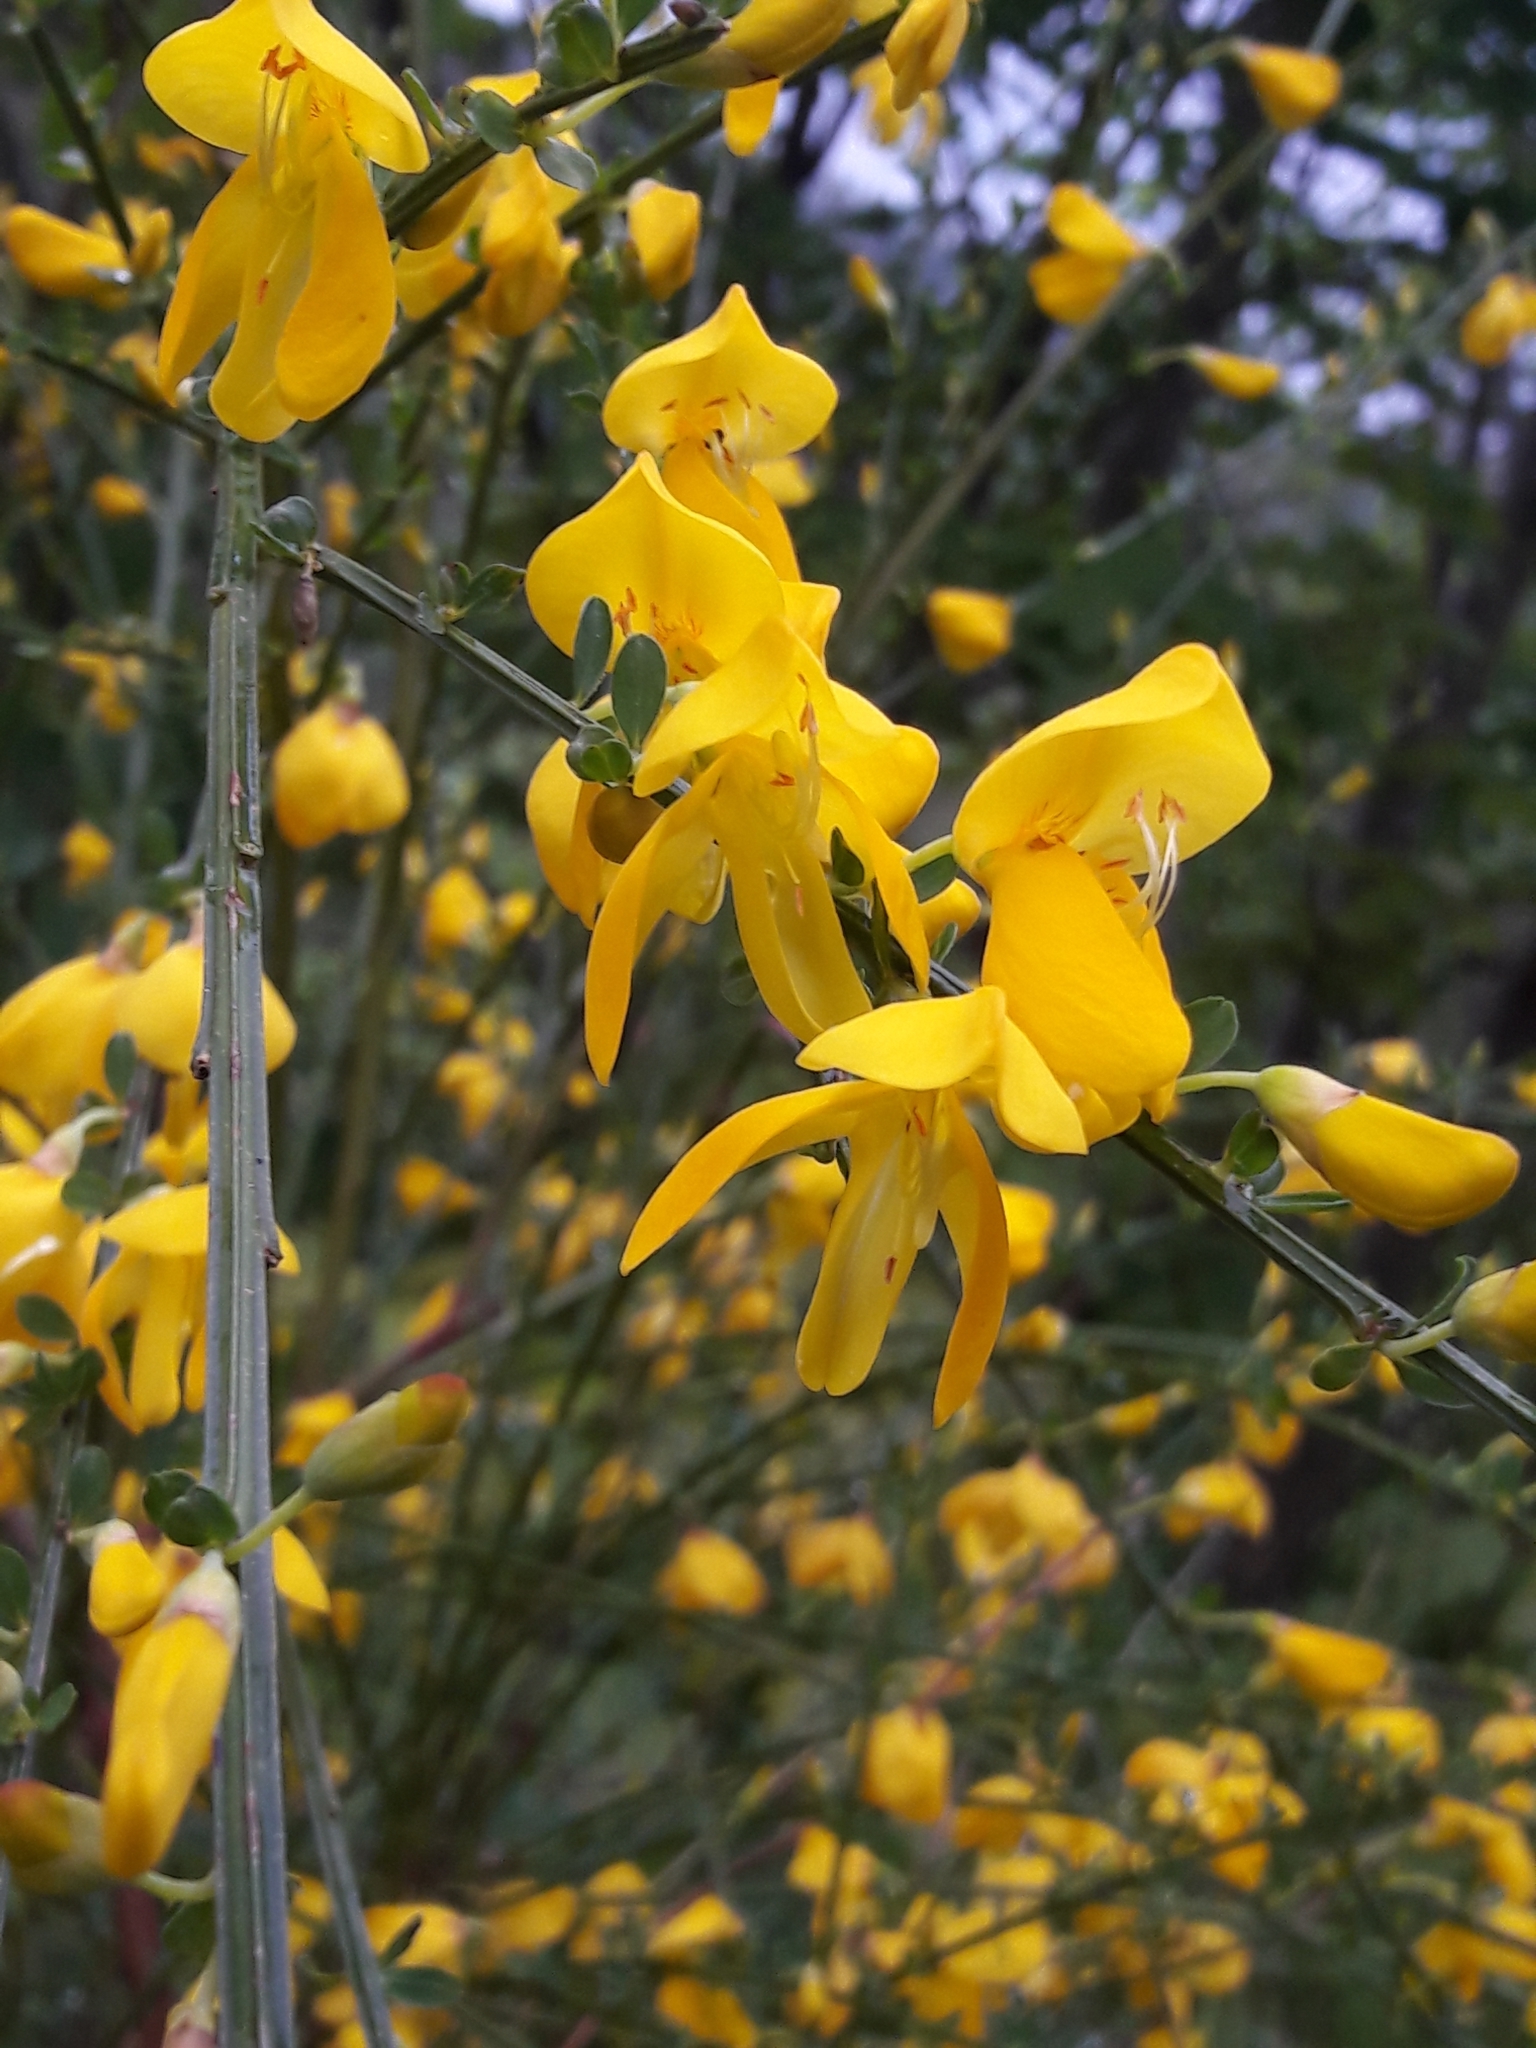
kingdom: Plantae
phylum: Tracheophyta
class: Magnoliopsida
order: Fabales
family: Fabaceae
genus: Cytisus
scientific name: Cytisus scoparius
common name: Scotch broom
